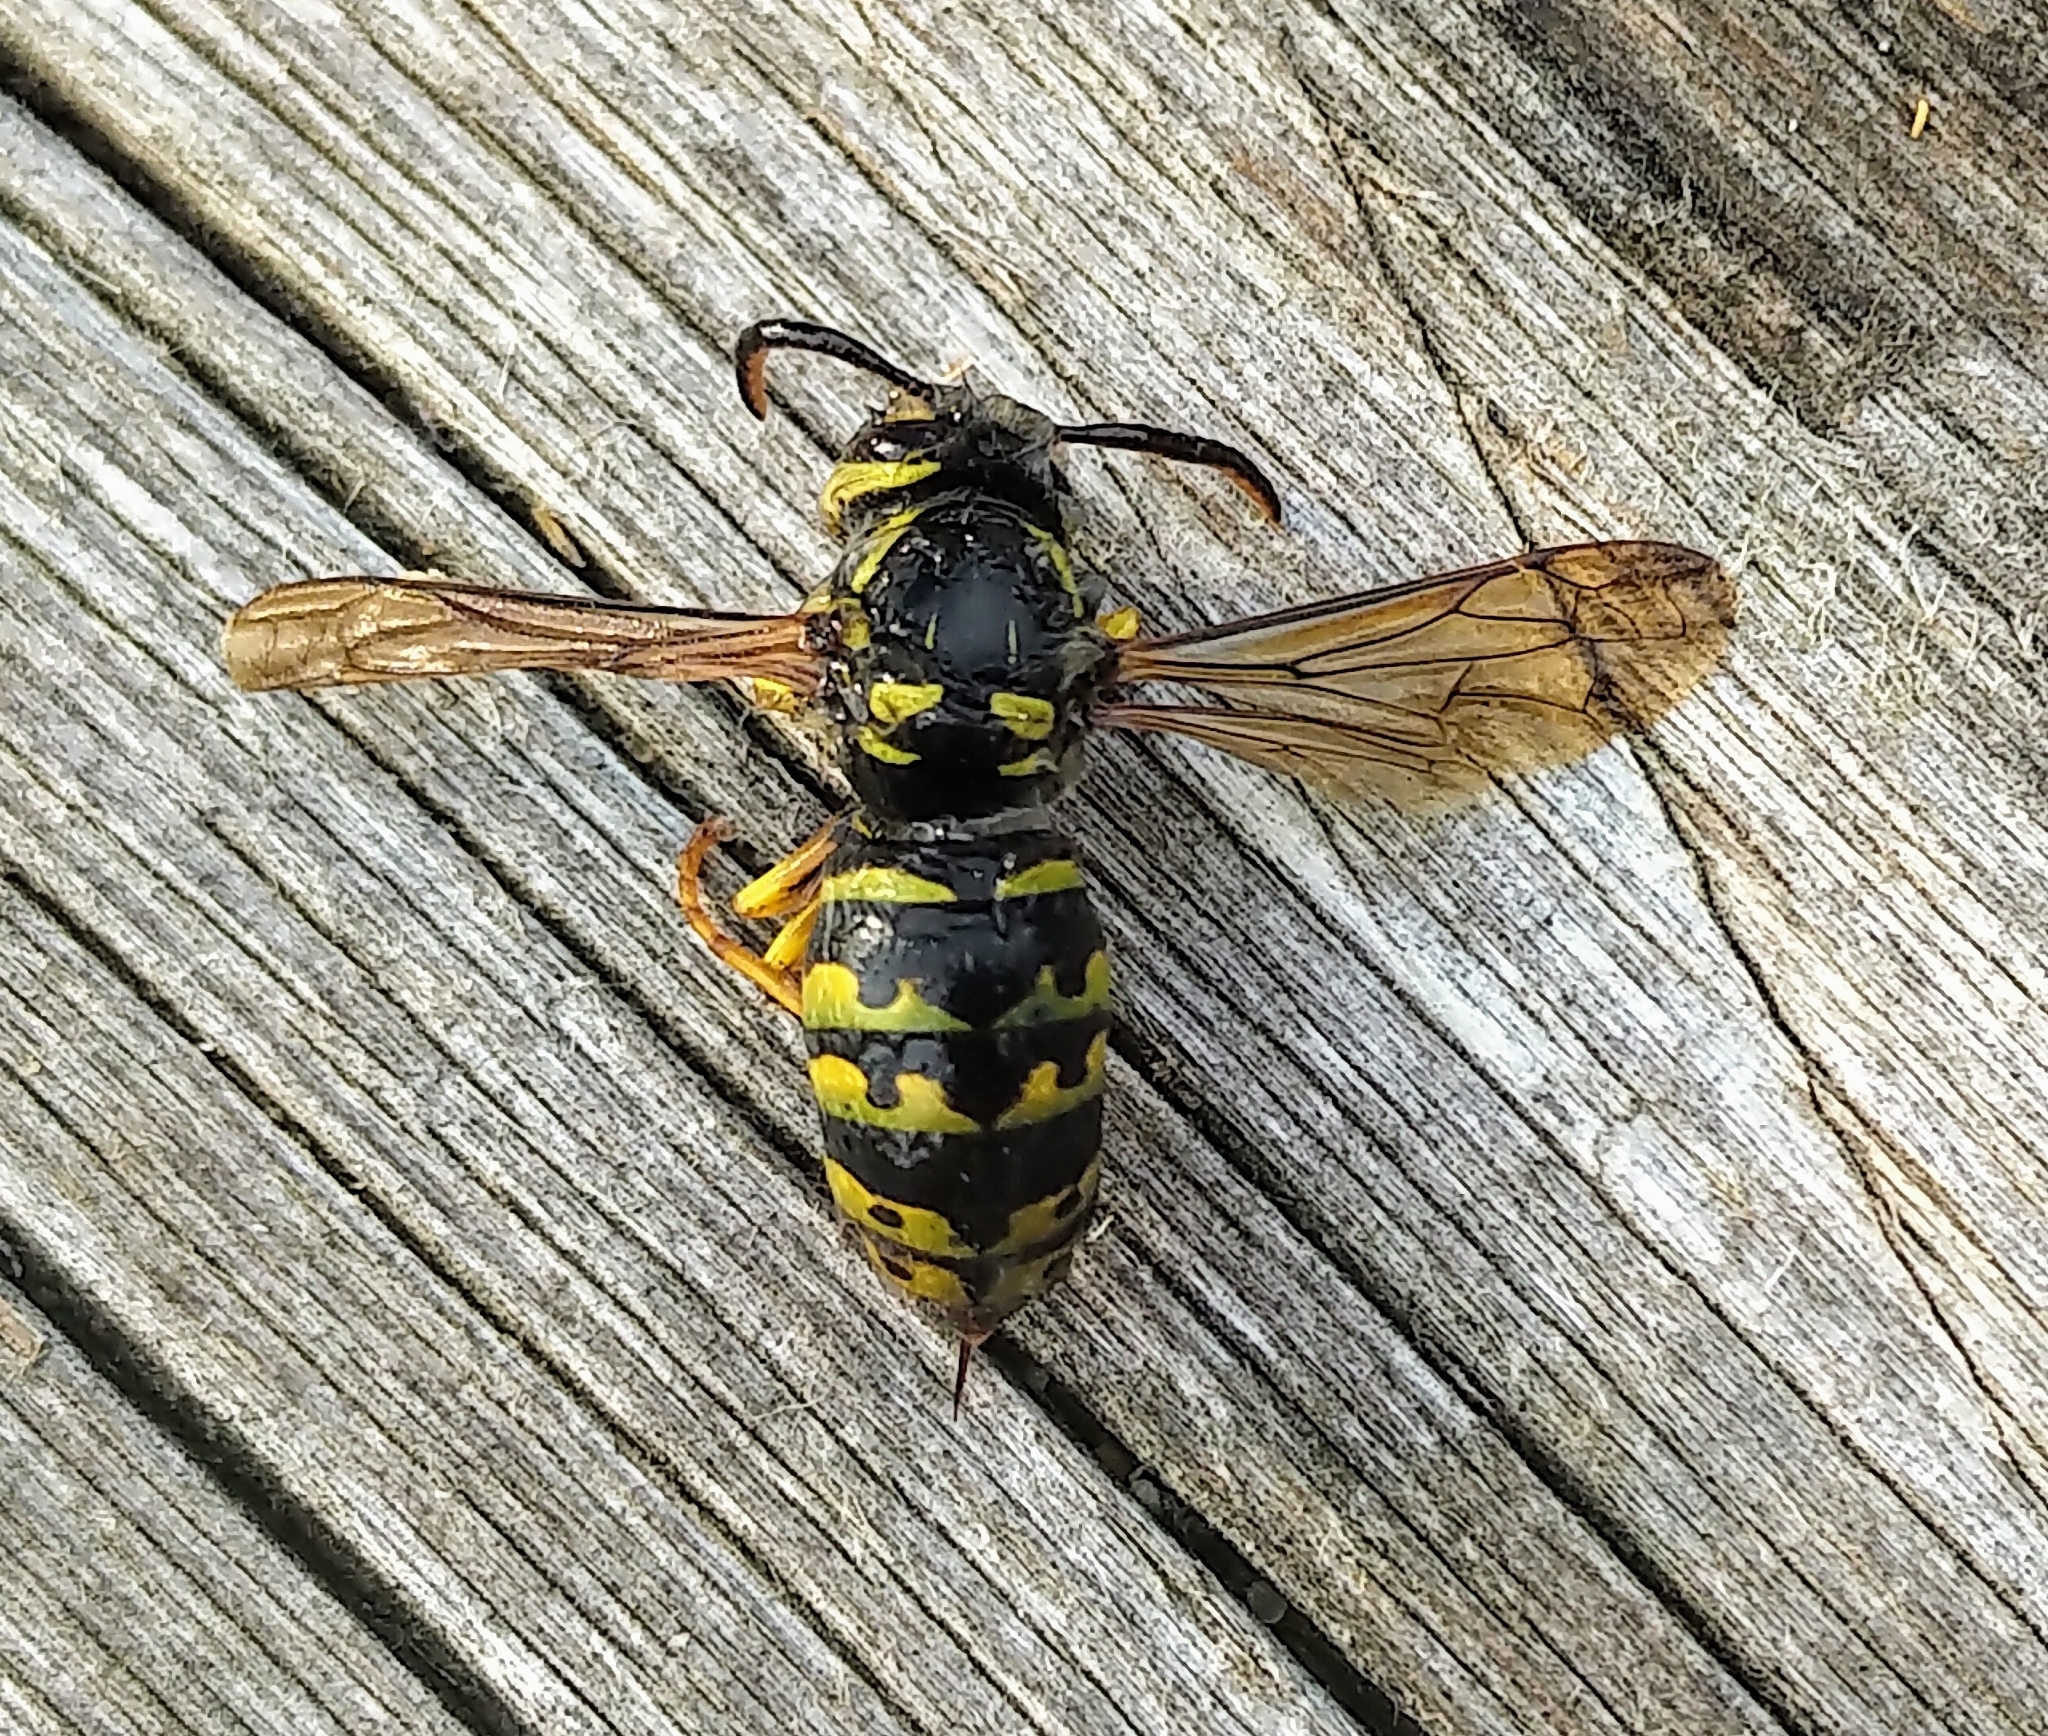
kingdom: Animalia
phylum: Arthropoda
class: Insecta
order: Hymenoptera
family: Vespidae
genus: Dolichovespula
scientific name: Dolichovespula arenaria
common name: Aerial yellowjacket
